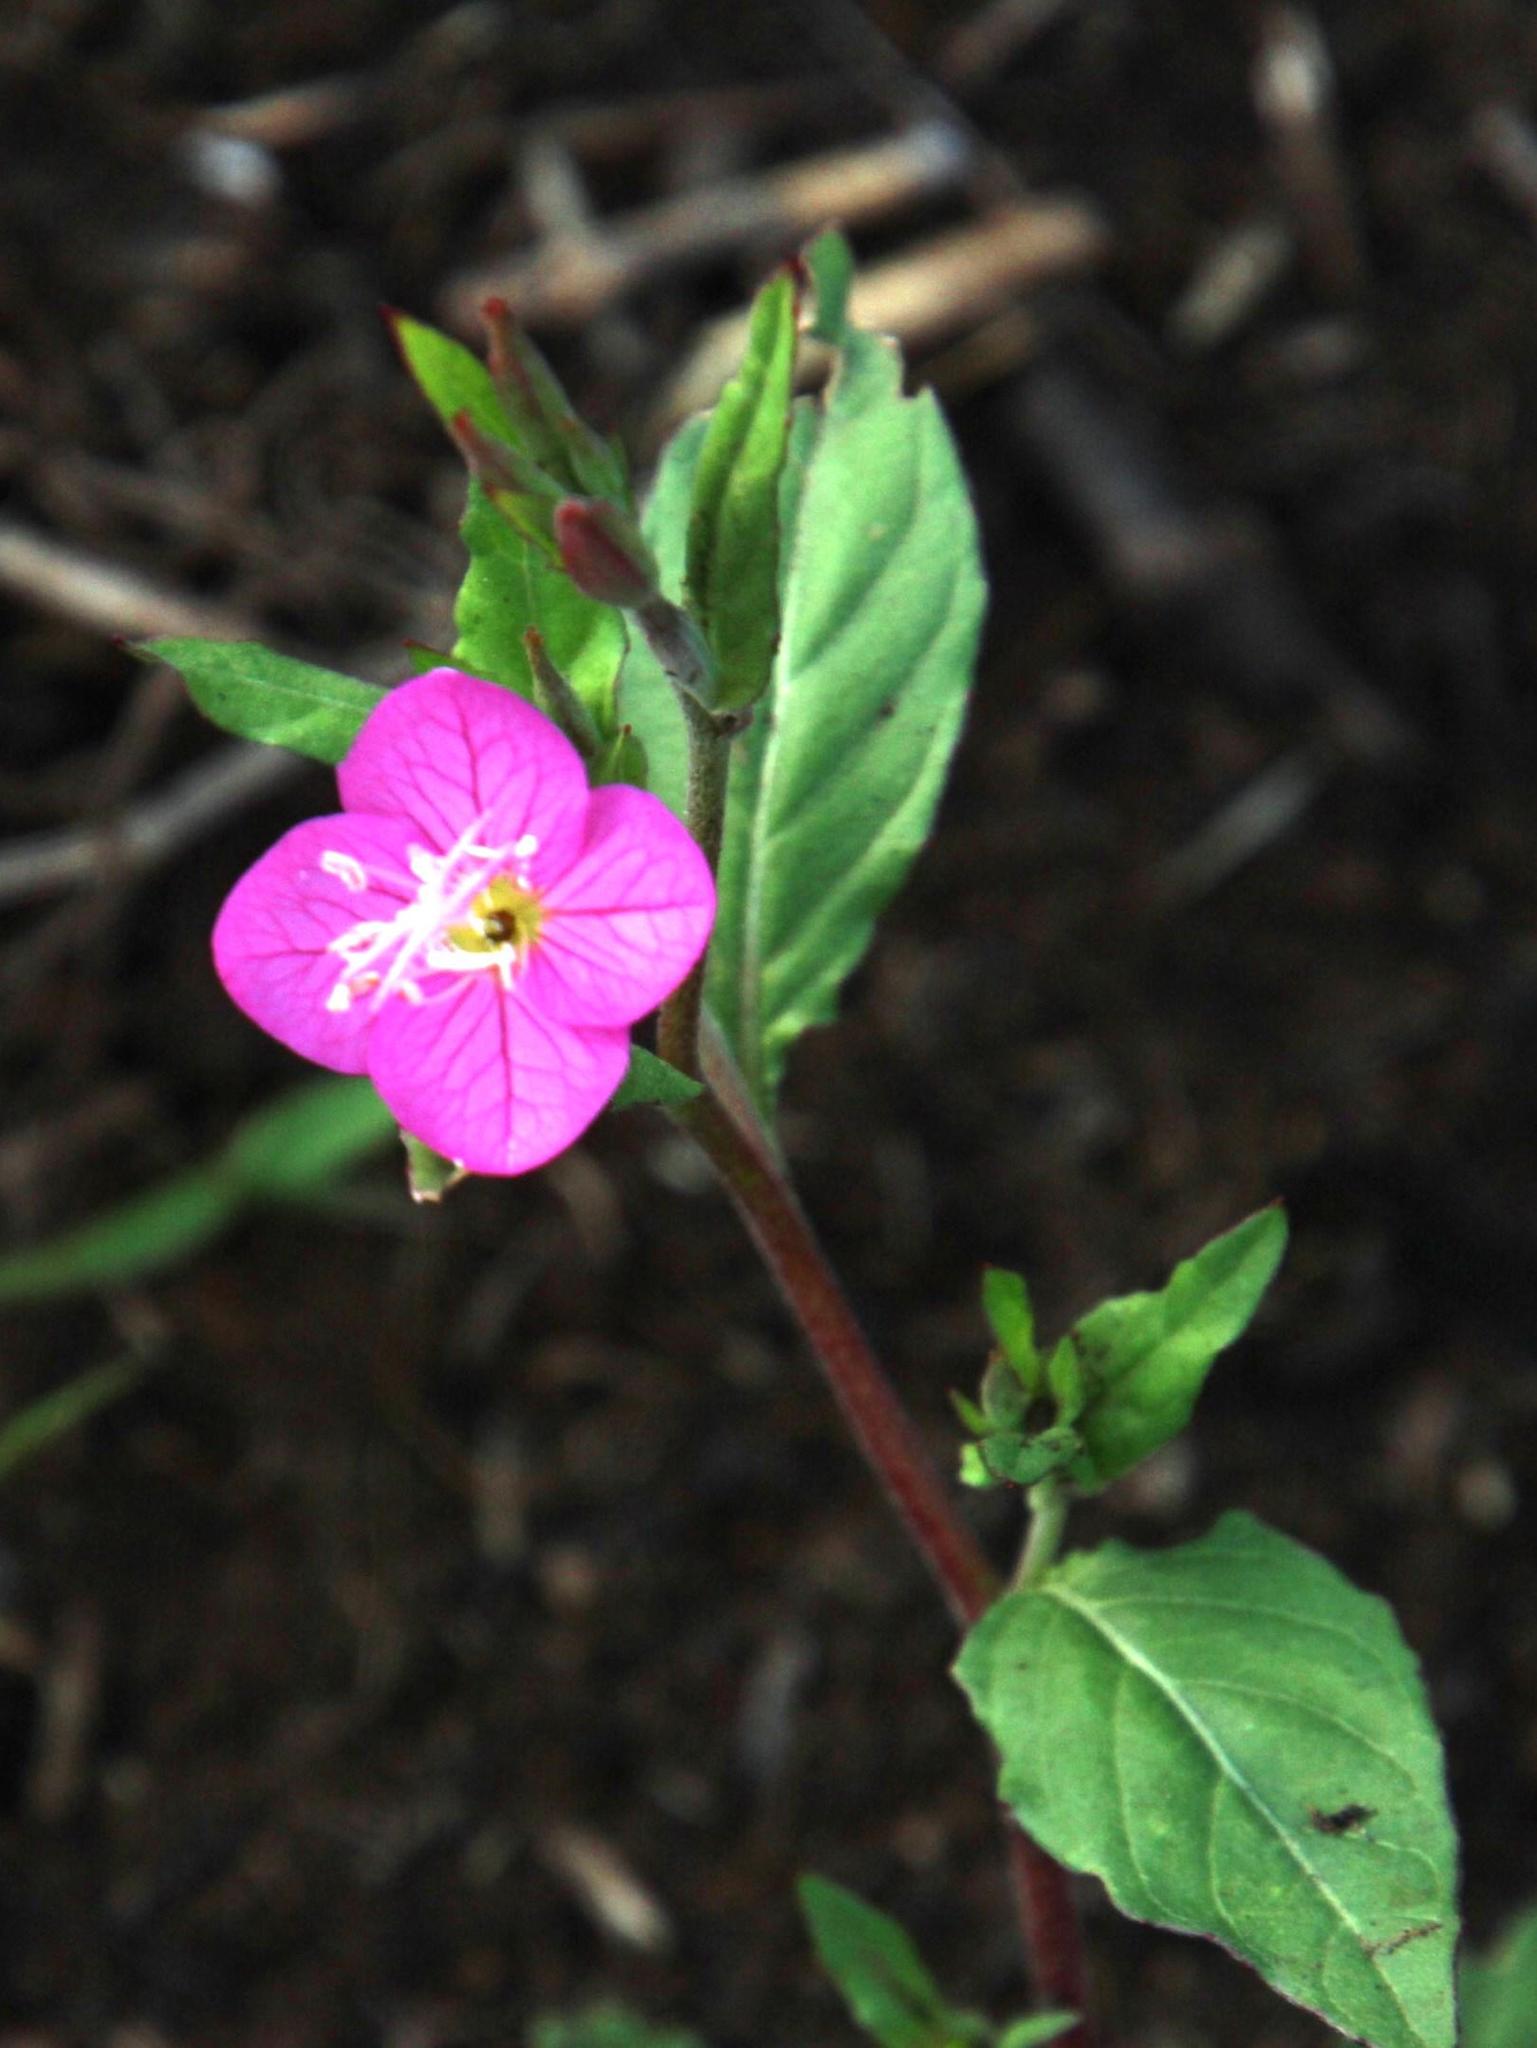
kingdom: Plantae
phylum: Tracheophyta
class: Magnoliopsida
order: Myrtales
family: Onagraceae
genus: Oenothera
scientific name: Oenothera rosea
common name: Rosy evening-primrose
